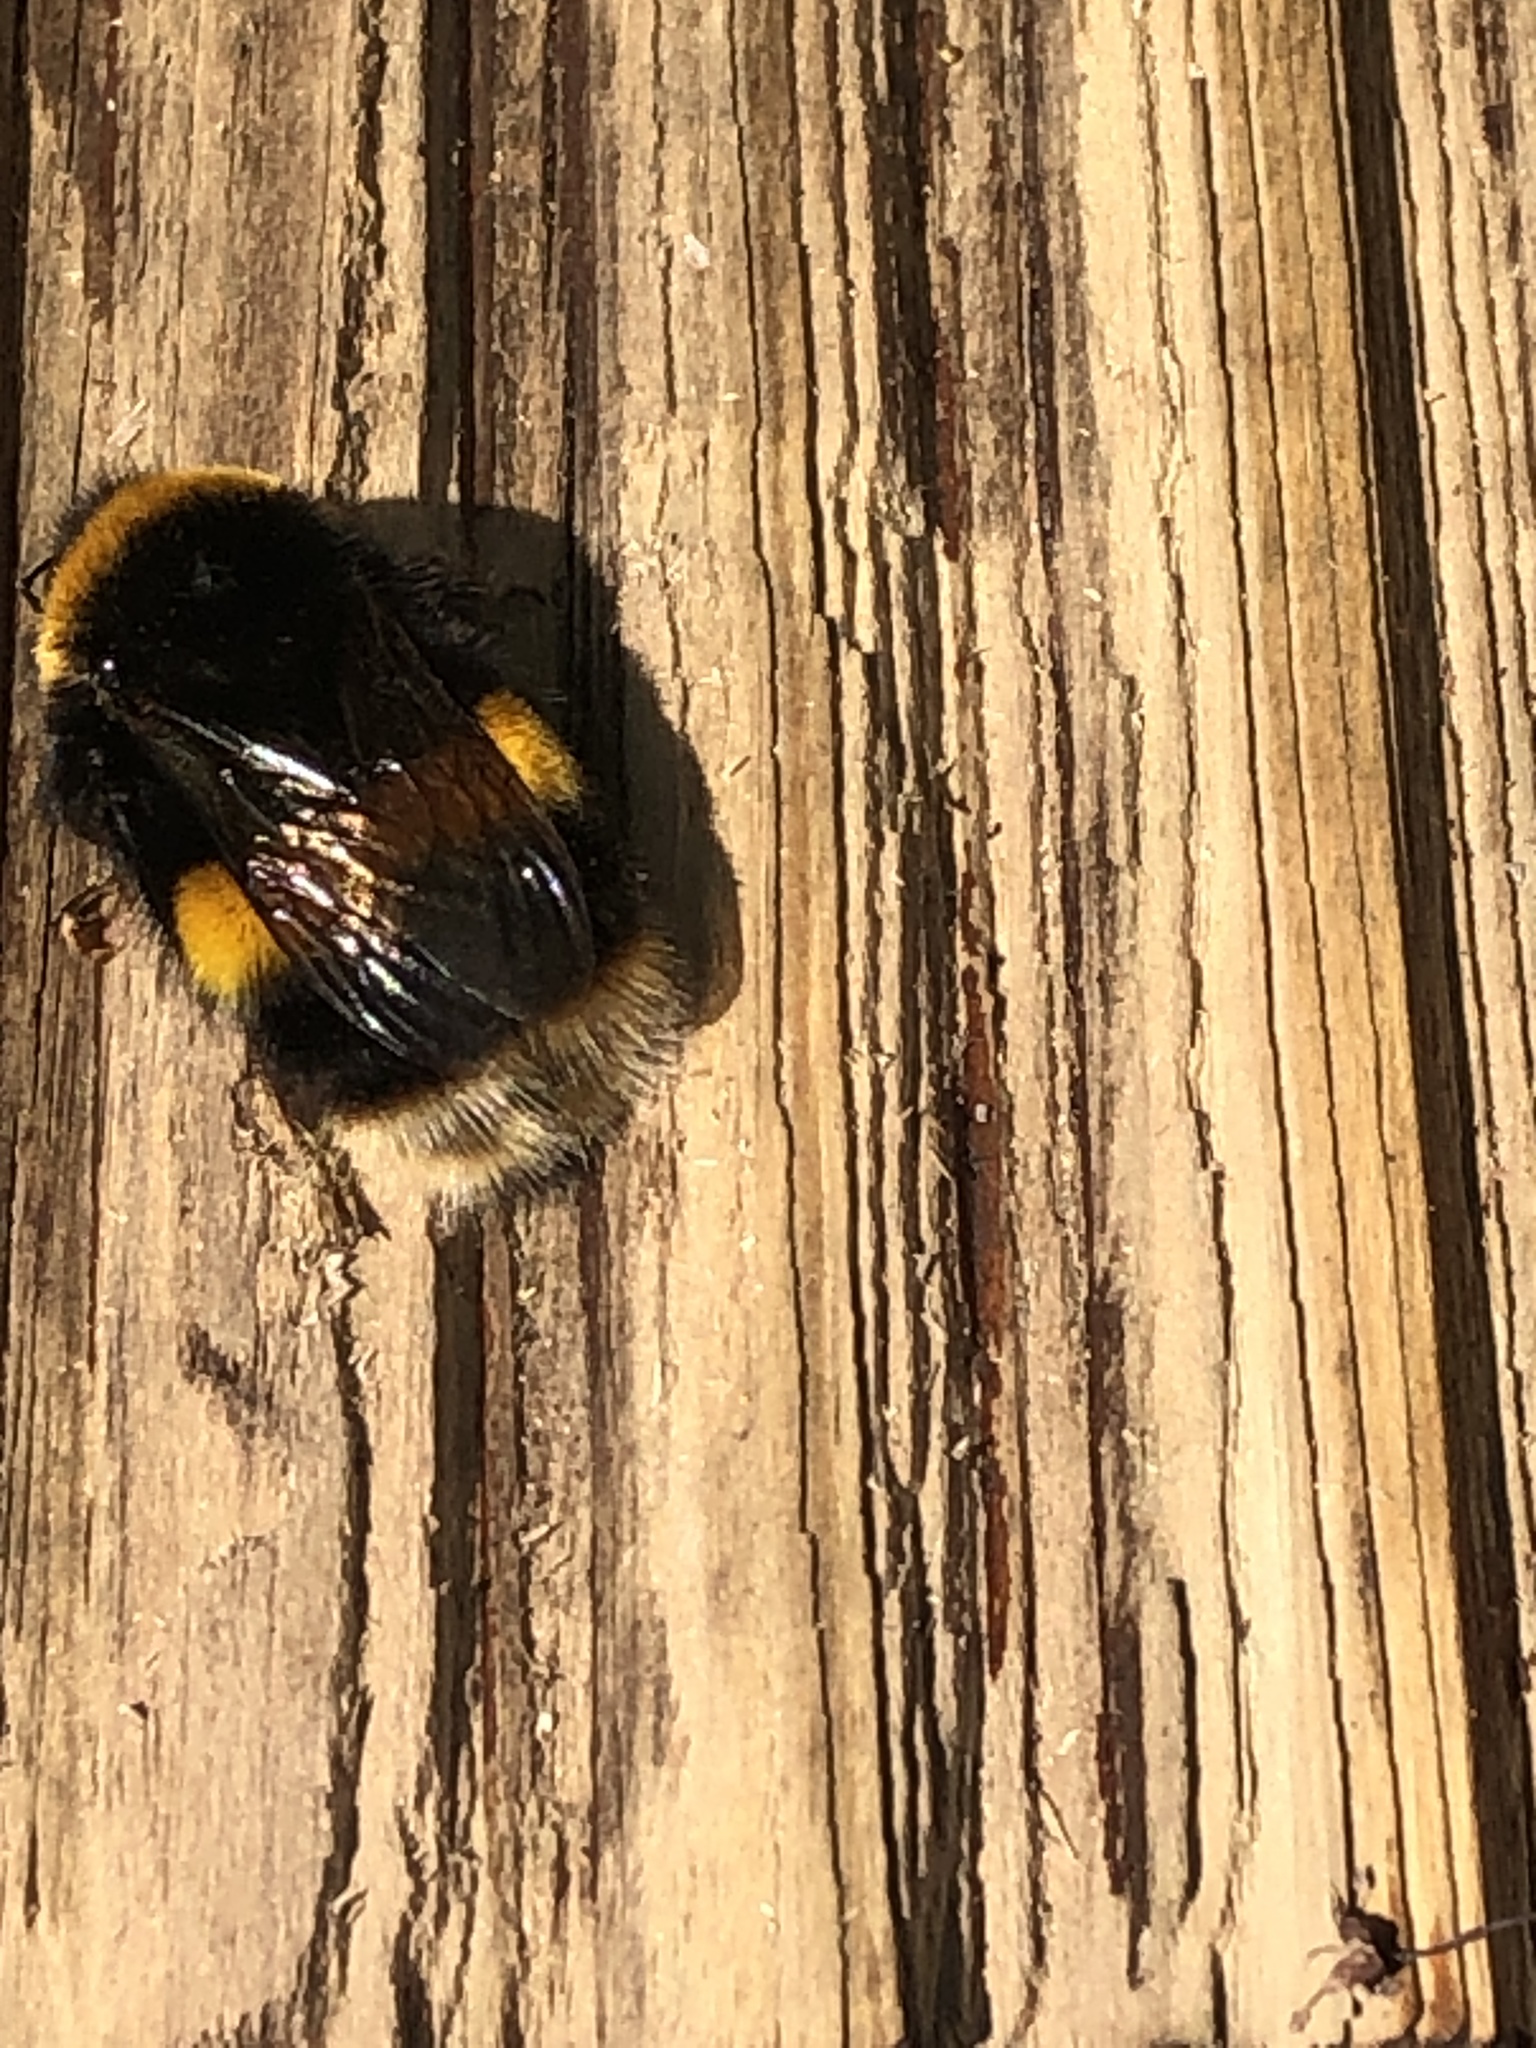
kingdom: Animalia
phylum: Arthropoda
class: Insecta
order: Hymenoptera
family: Apidae
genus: Bombus
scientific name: Bombus terrestris
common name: Buff-tailed bumblebee
